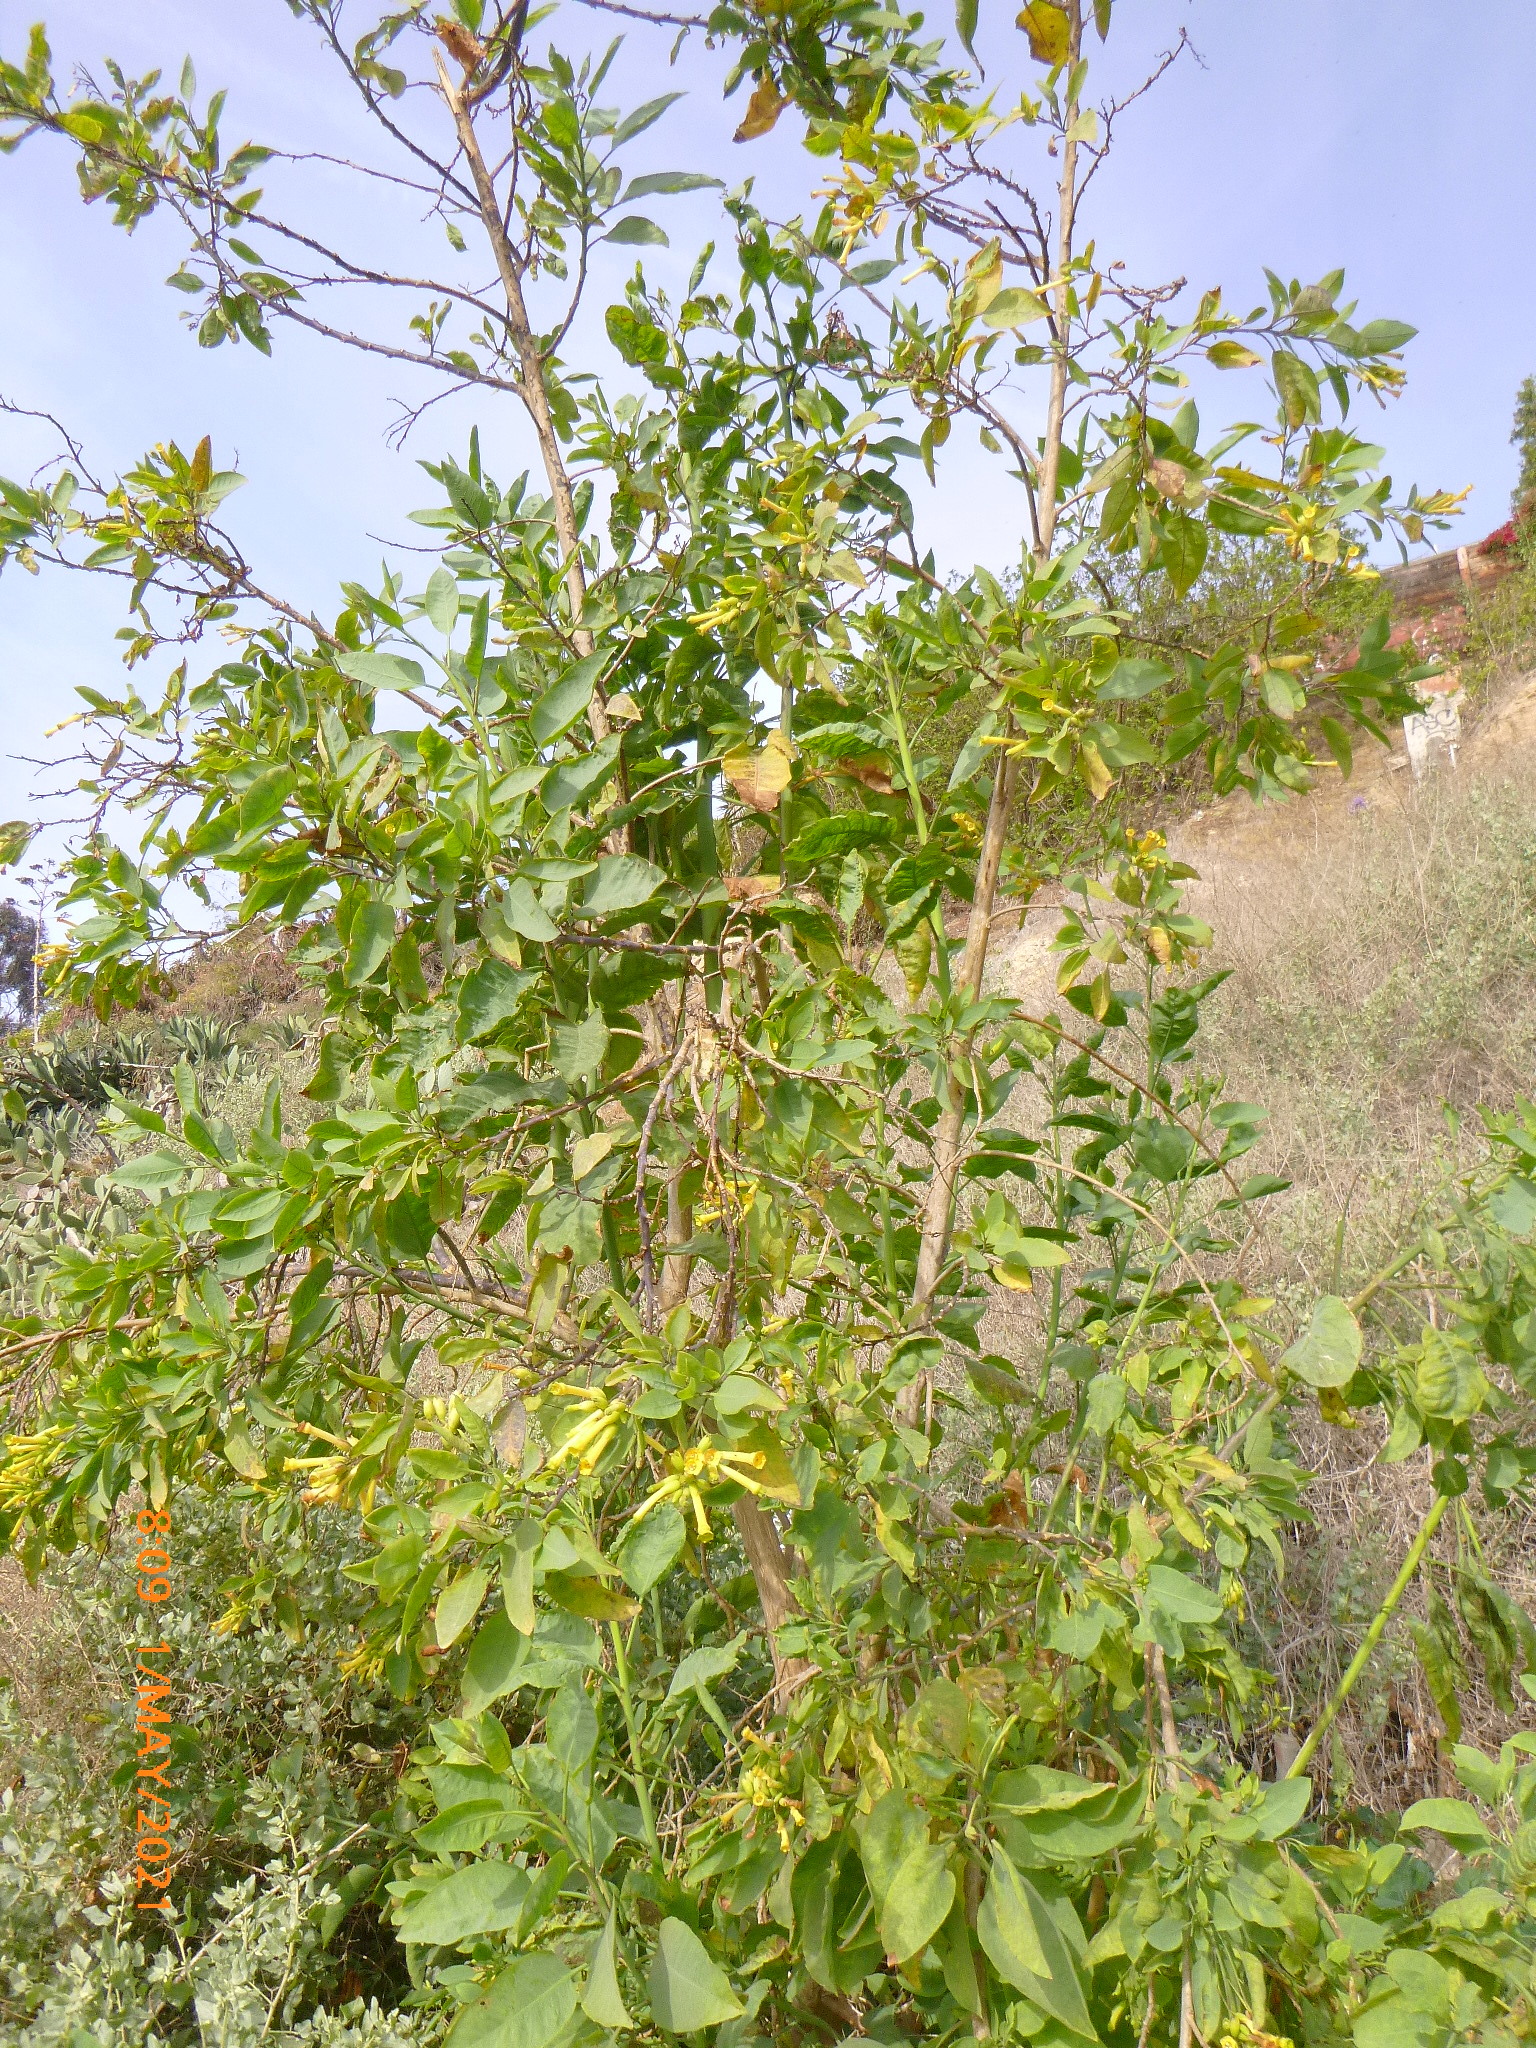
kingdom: Plantae
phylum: Tracheophyta
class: Magnoliopsida
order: Solanales
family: Solanaceae
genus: Nicotiana
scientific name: Nicotiana glauca
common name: Tree tobacco
